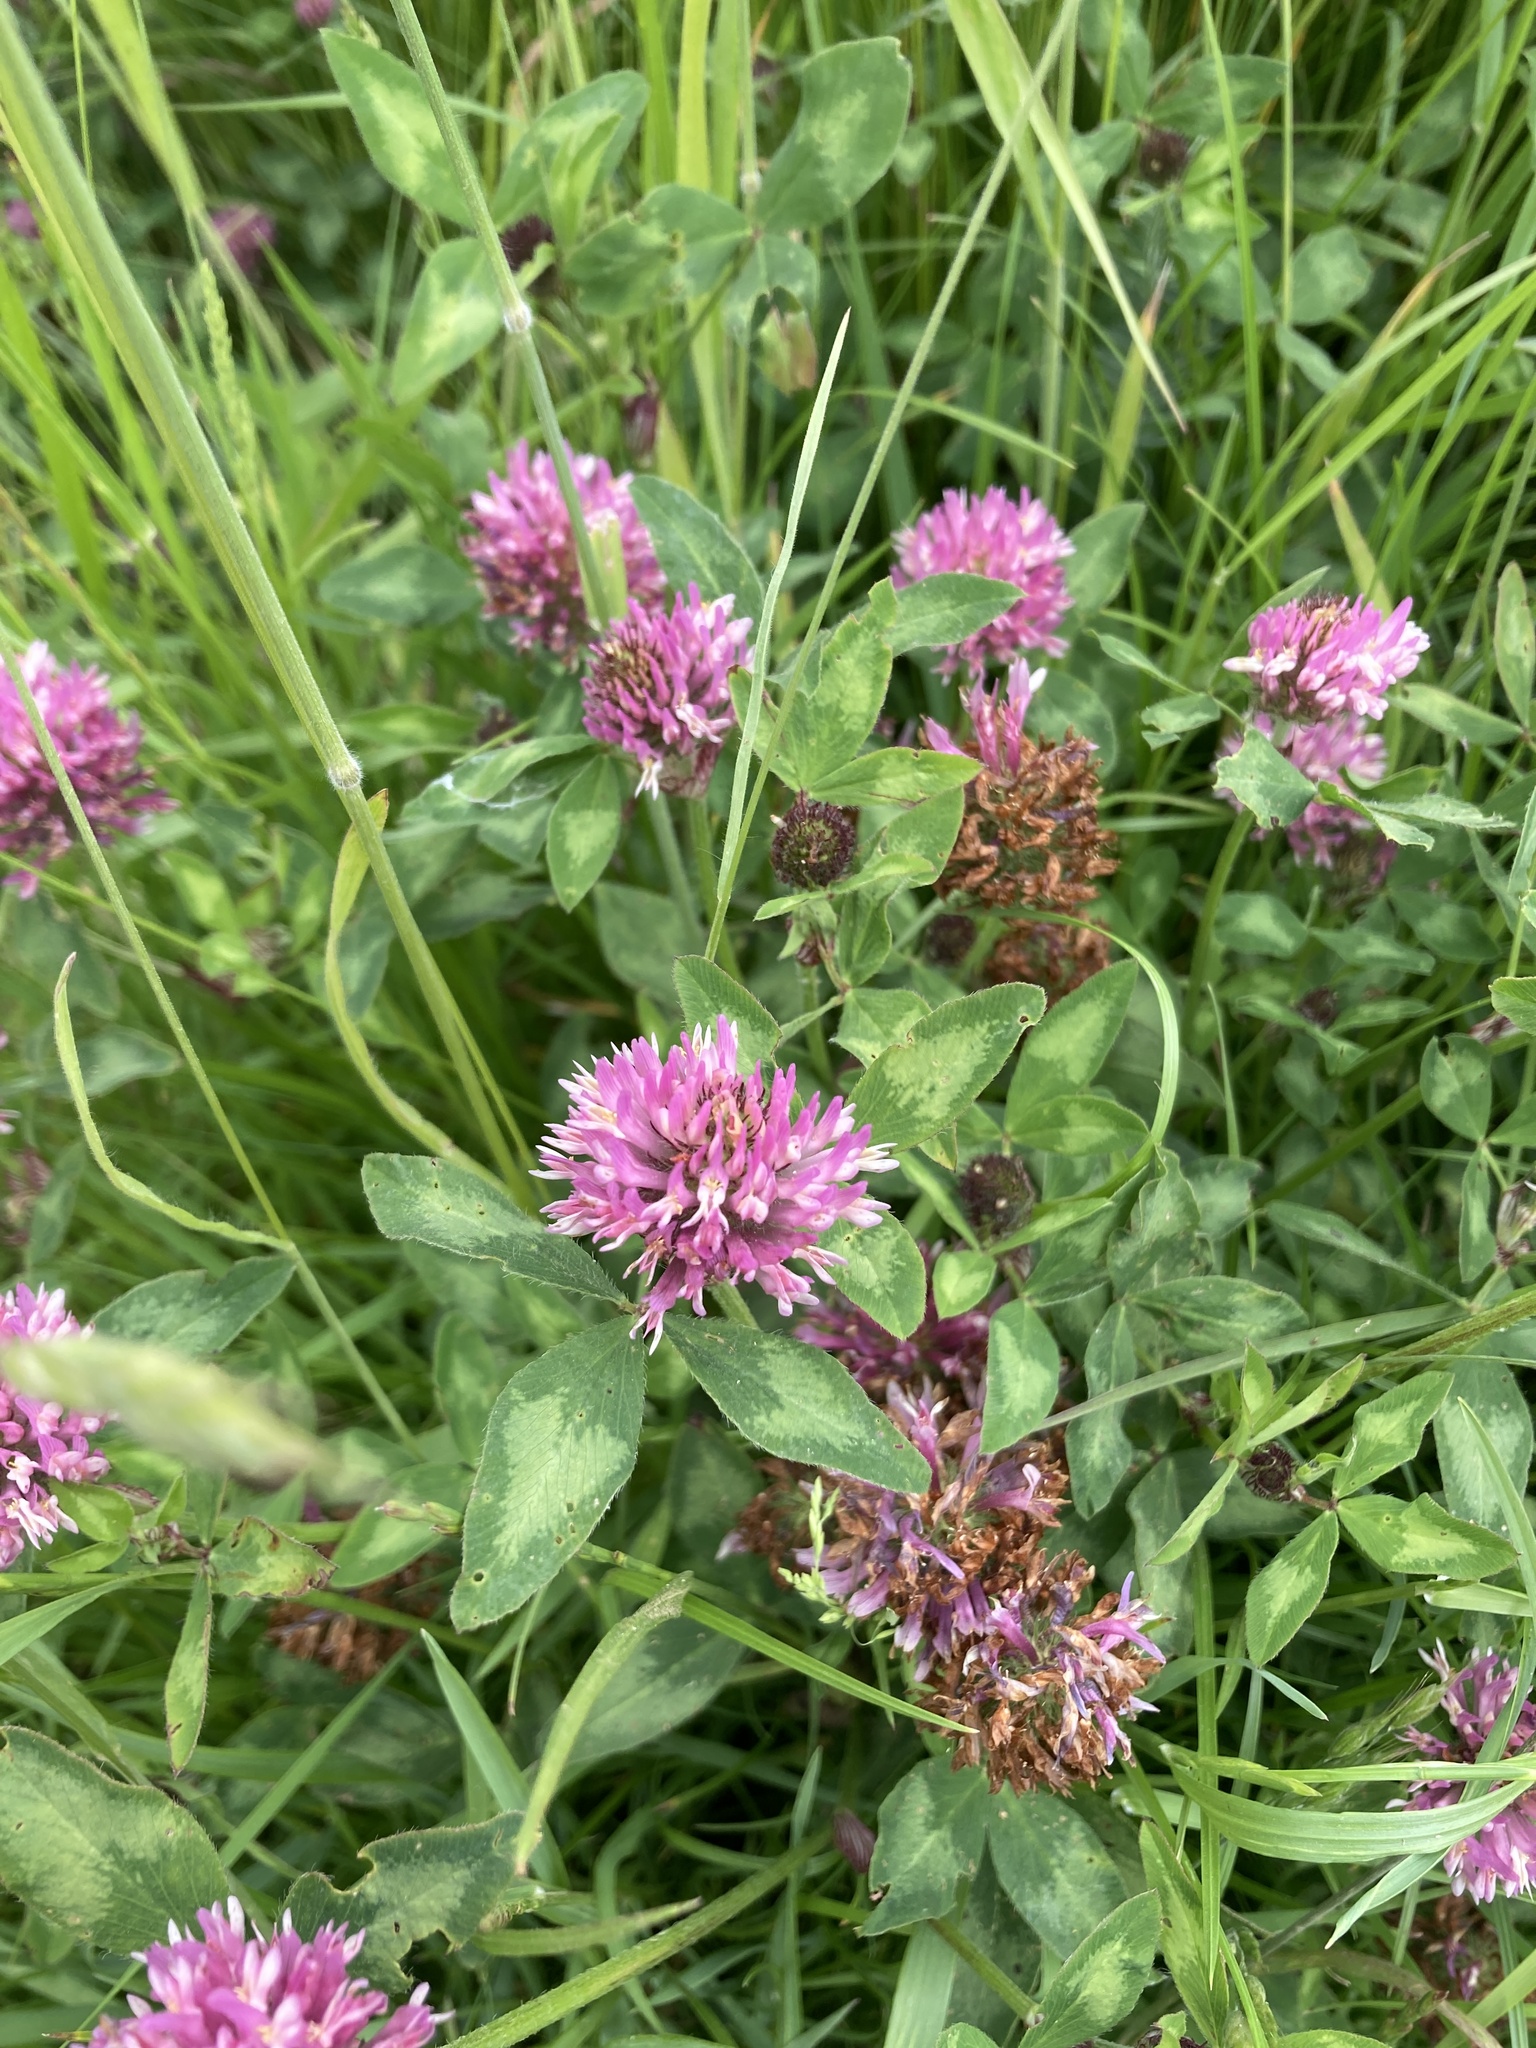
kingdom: Plantae
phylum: Tracheophyta
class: Magnoliopsida
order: Fabales
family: Fabaceae
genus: Trifolium
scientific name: Trifolium pratense
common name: Red clover
